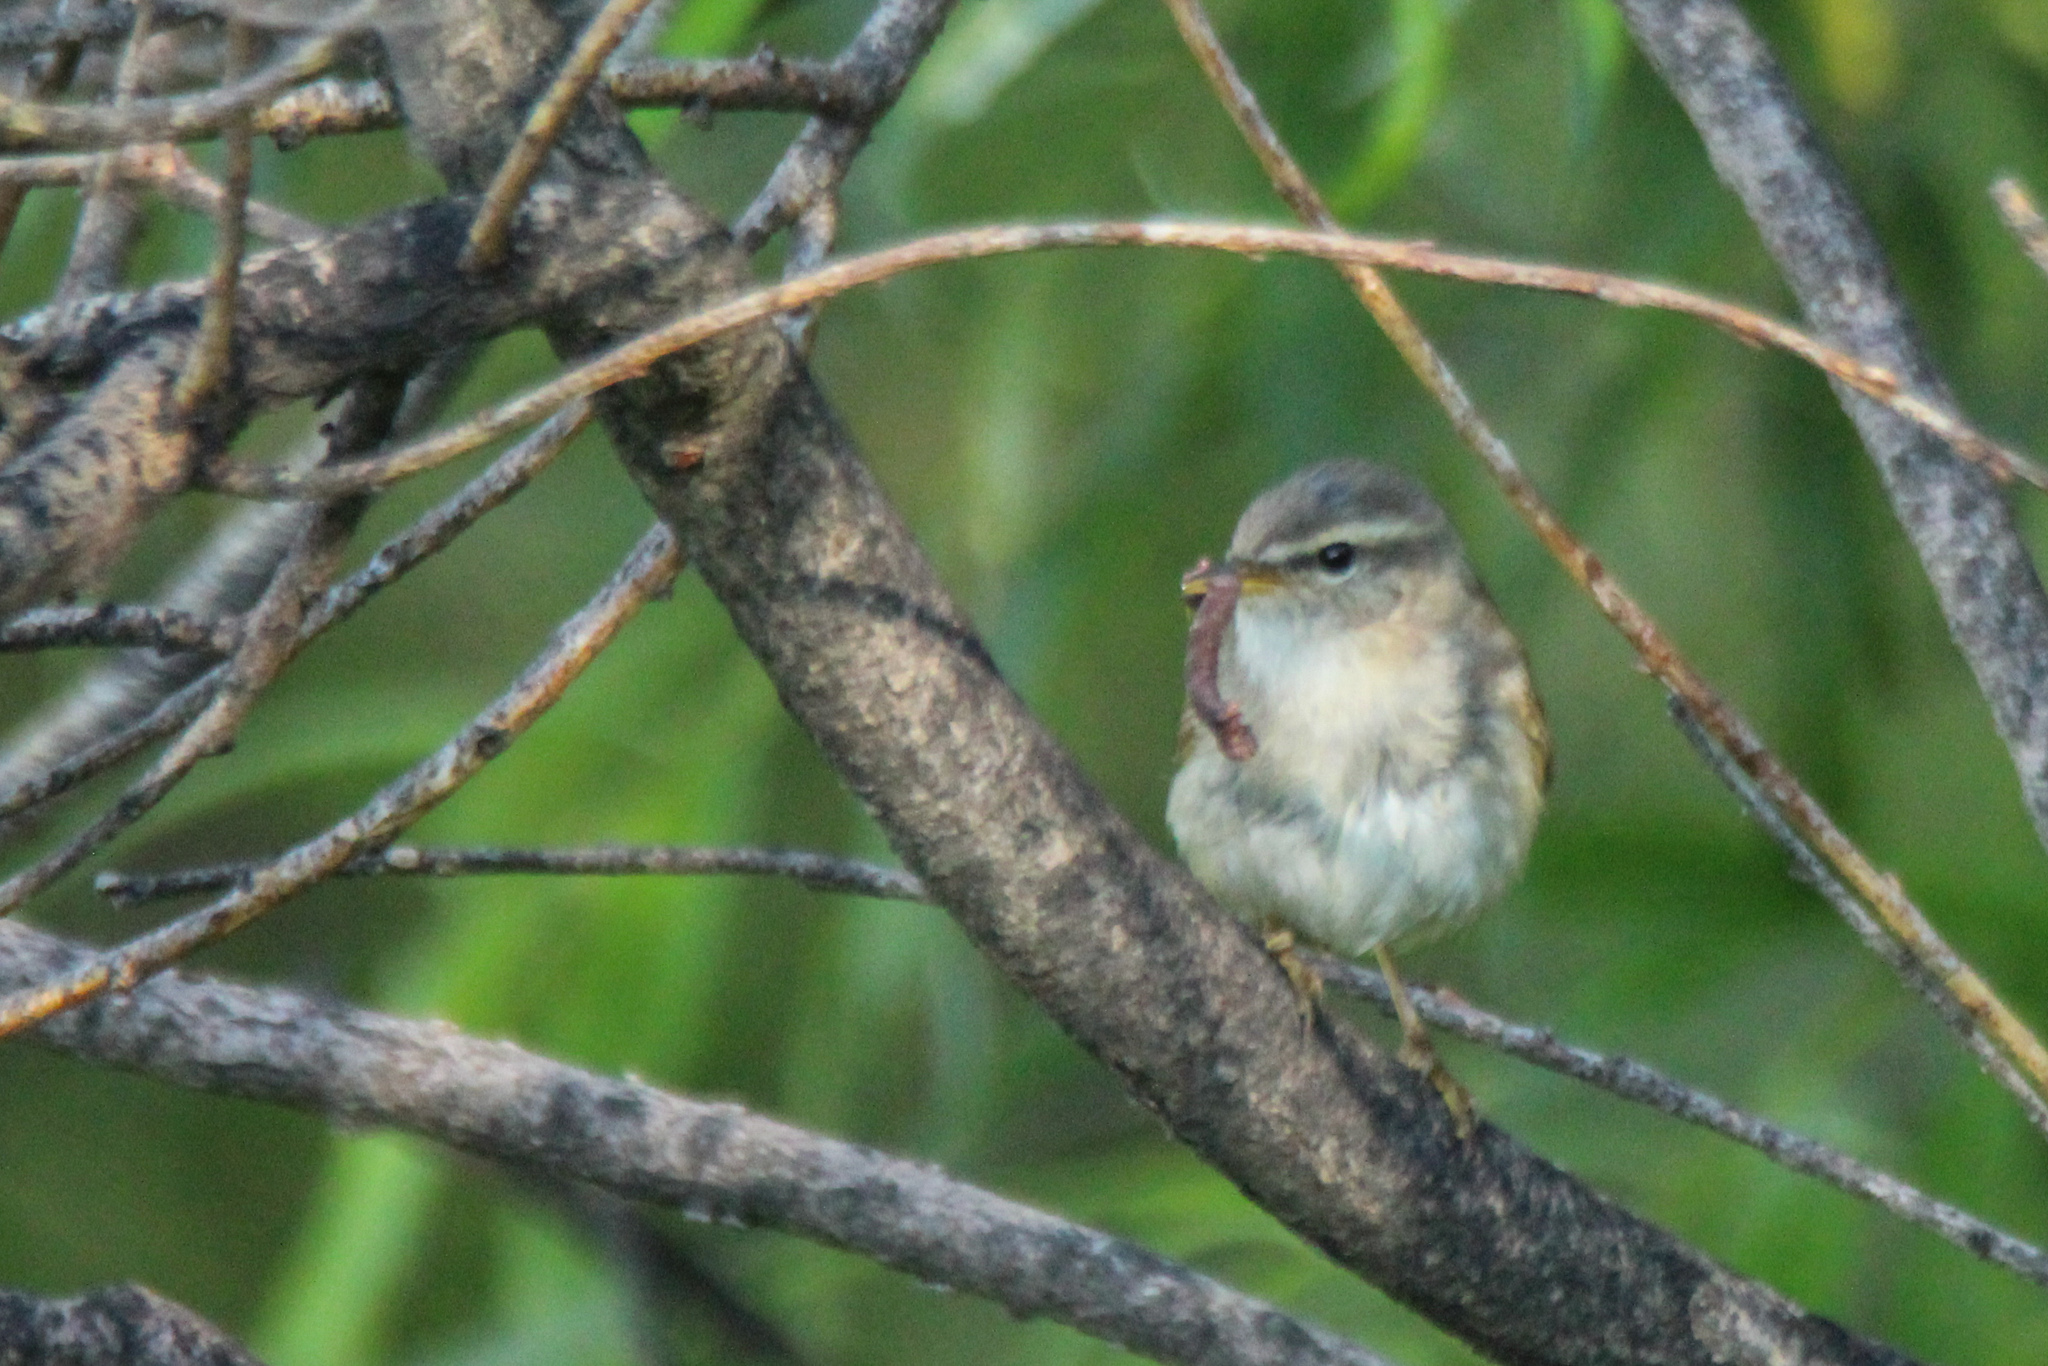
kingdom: Animalia
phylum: Chordata
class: Aves
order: Passeriformes
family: Phylloscopidae
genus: Phylloscopus
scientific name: Phylloscopus fuscatus
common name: Dusky warbler
